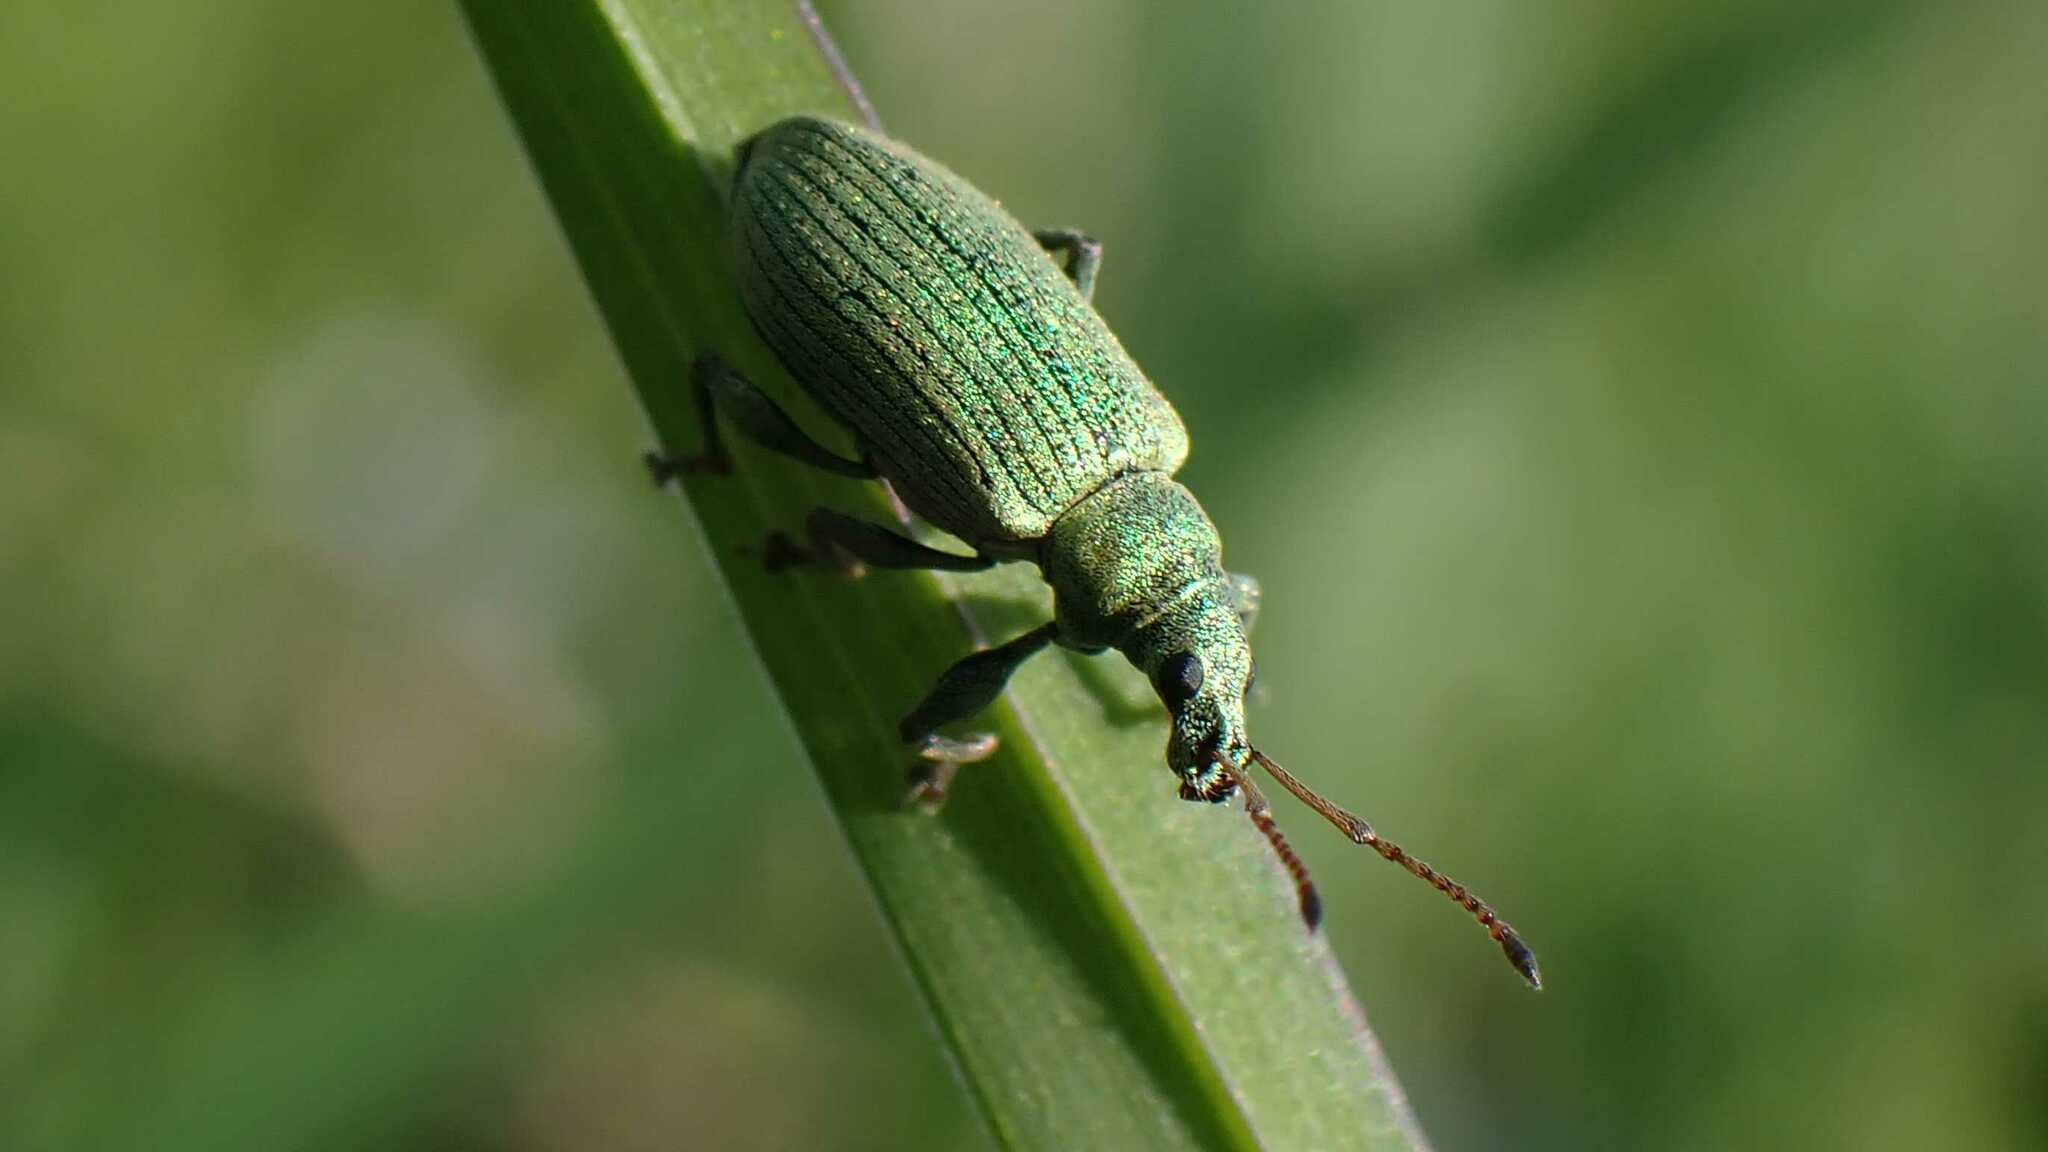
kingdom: Animalia
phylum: Arthropoda
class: Insecta
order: Coleoptera
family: Curculionidae
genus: Phyllobius
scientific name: Phyllobius maculicornis
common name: Green leaf weevil
